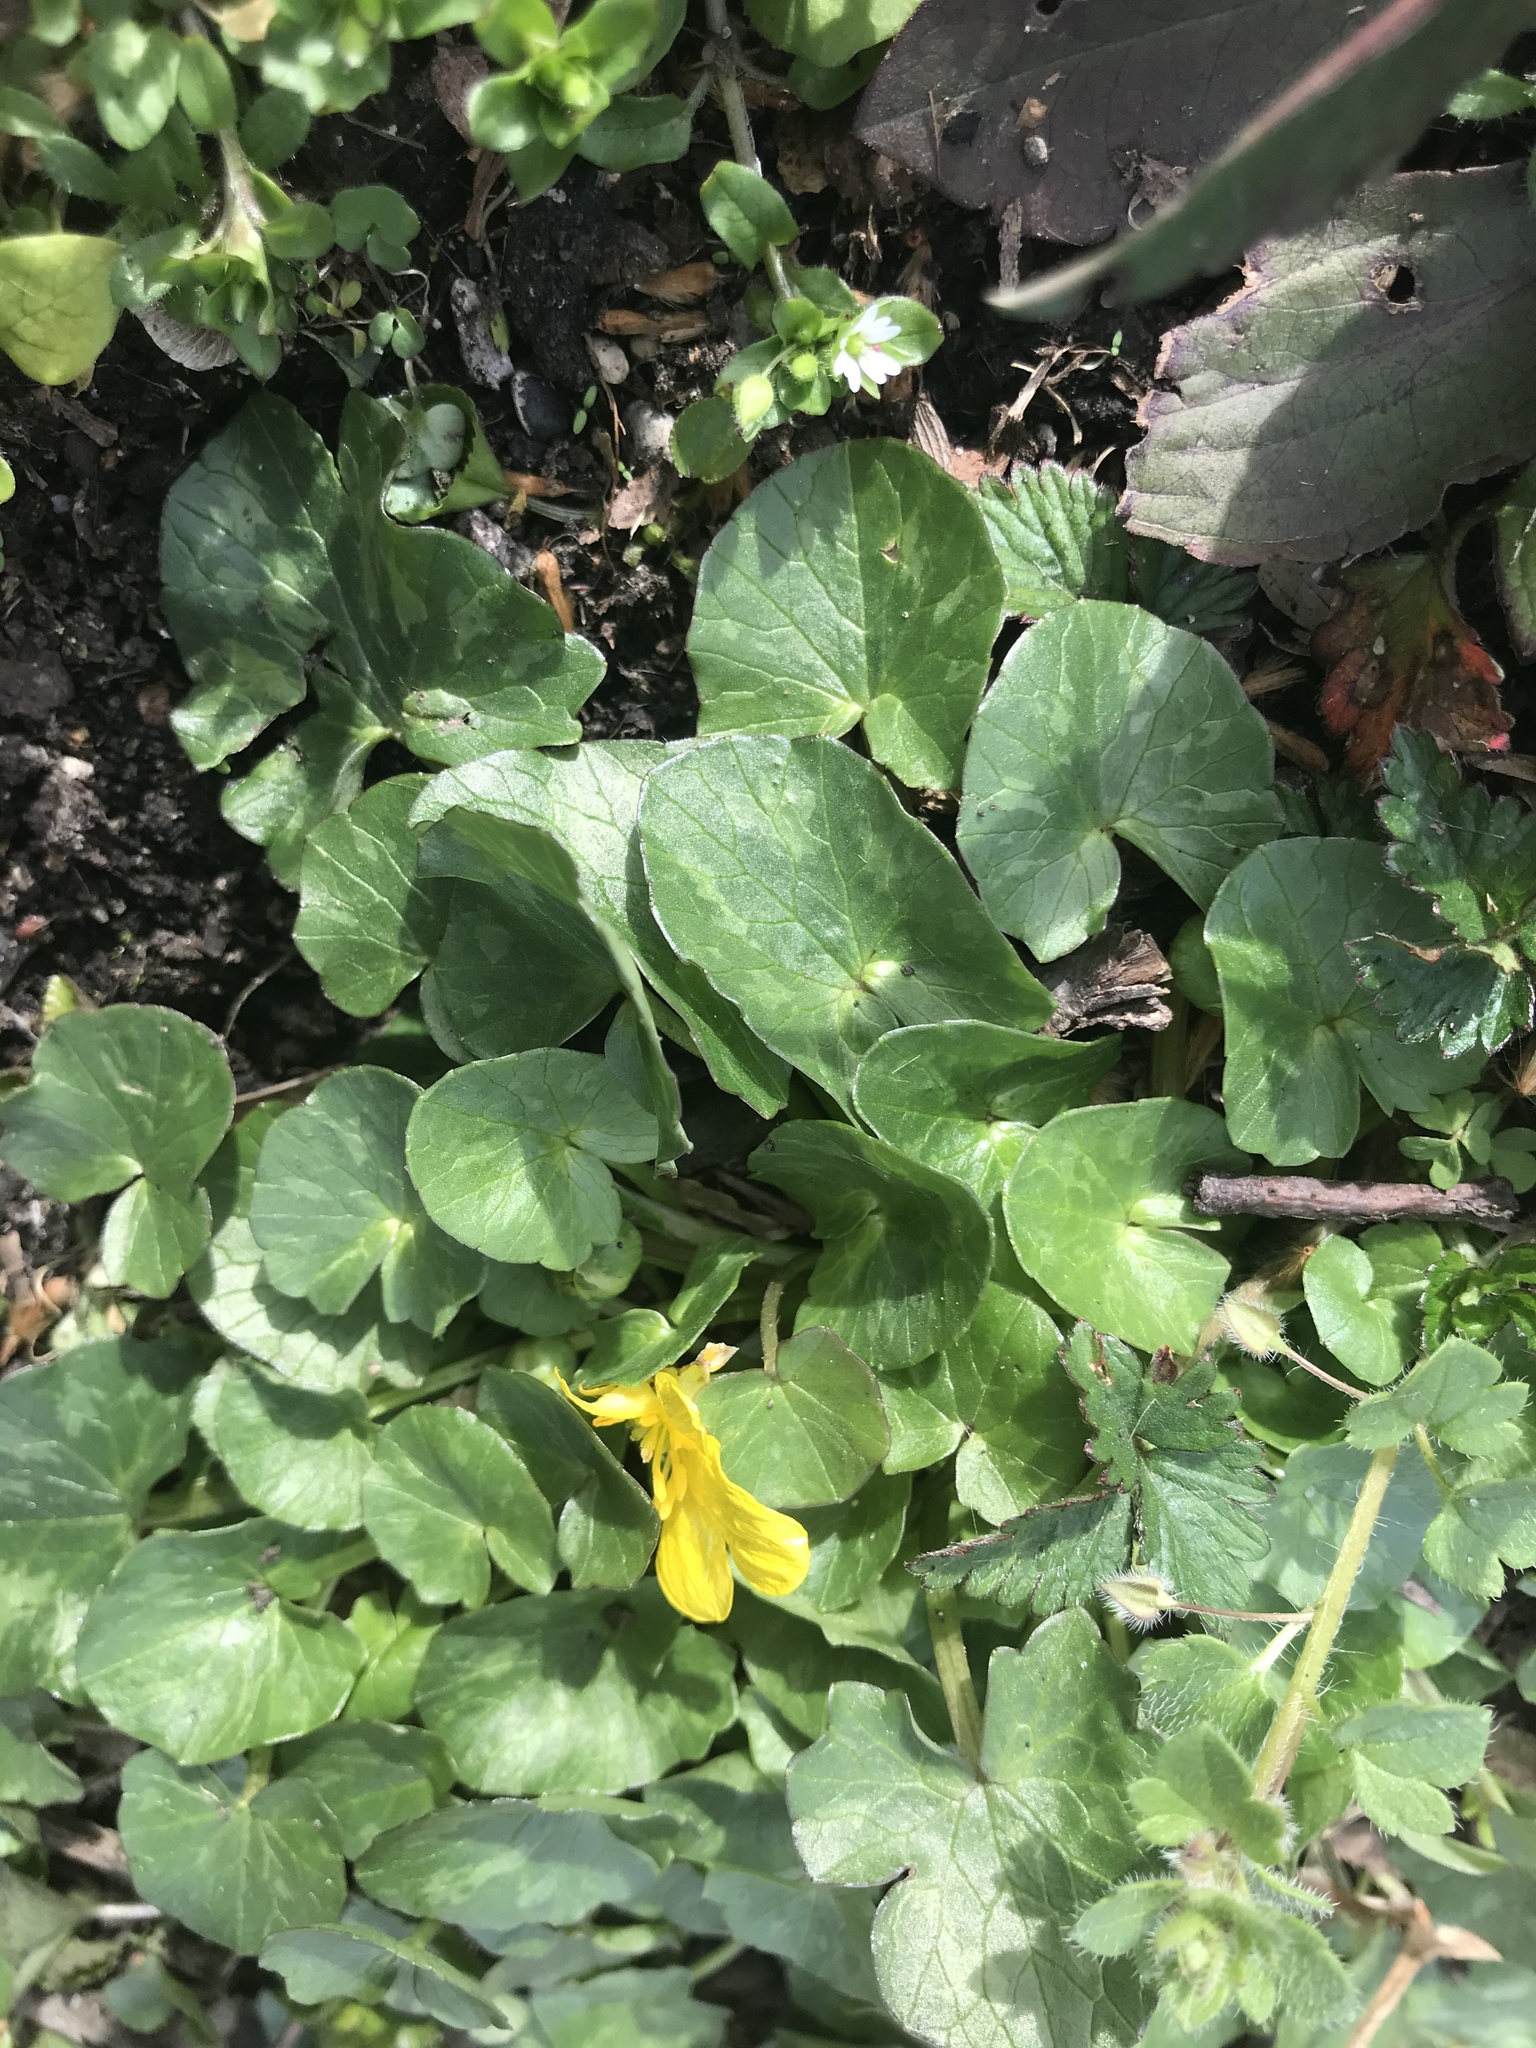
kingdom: Plantae
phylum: Tracheophyta
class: Magnoliopsida
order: Ranunculales
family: Ranunculaceae
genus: Ficaria
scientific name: Ficaria verna
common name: Lesser celandine
